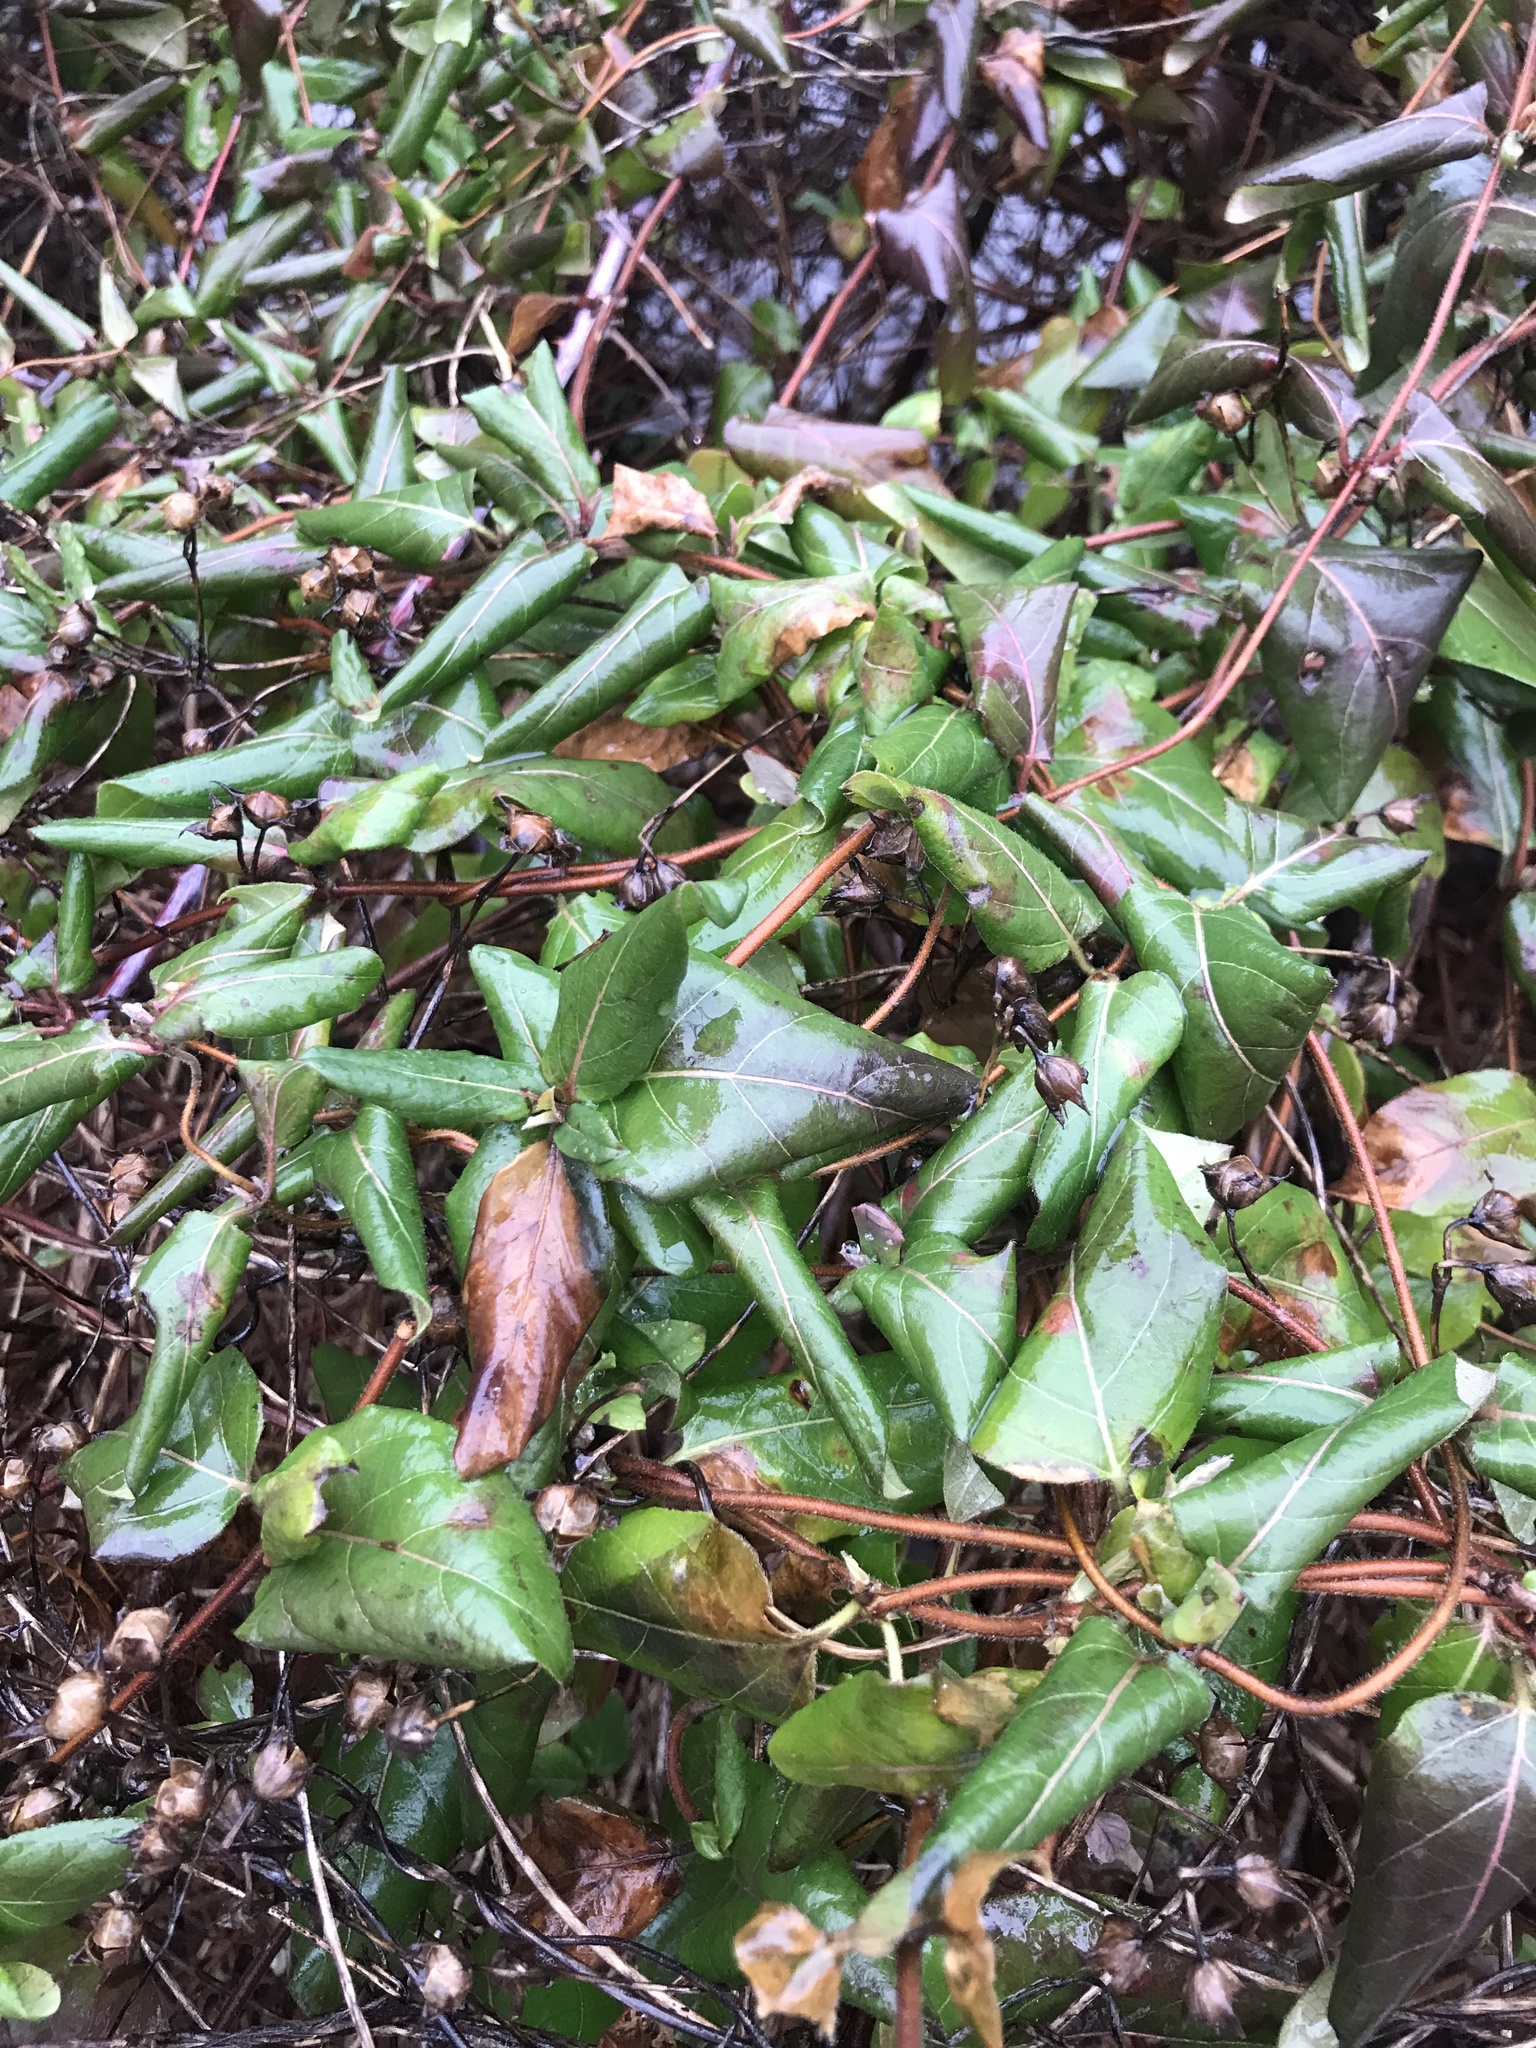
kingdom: Plantae
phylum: Tracheophyta
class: Magnoliopsida
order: Dipsacales
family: Caprifoliaceae
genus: Lonicera
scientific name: Lonicera japonica
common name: Japanese honeysuckle
